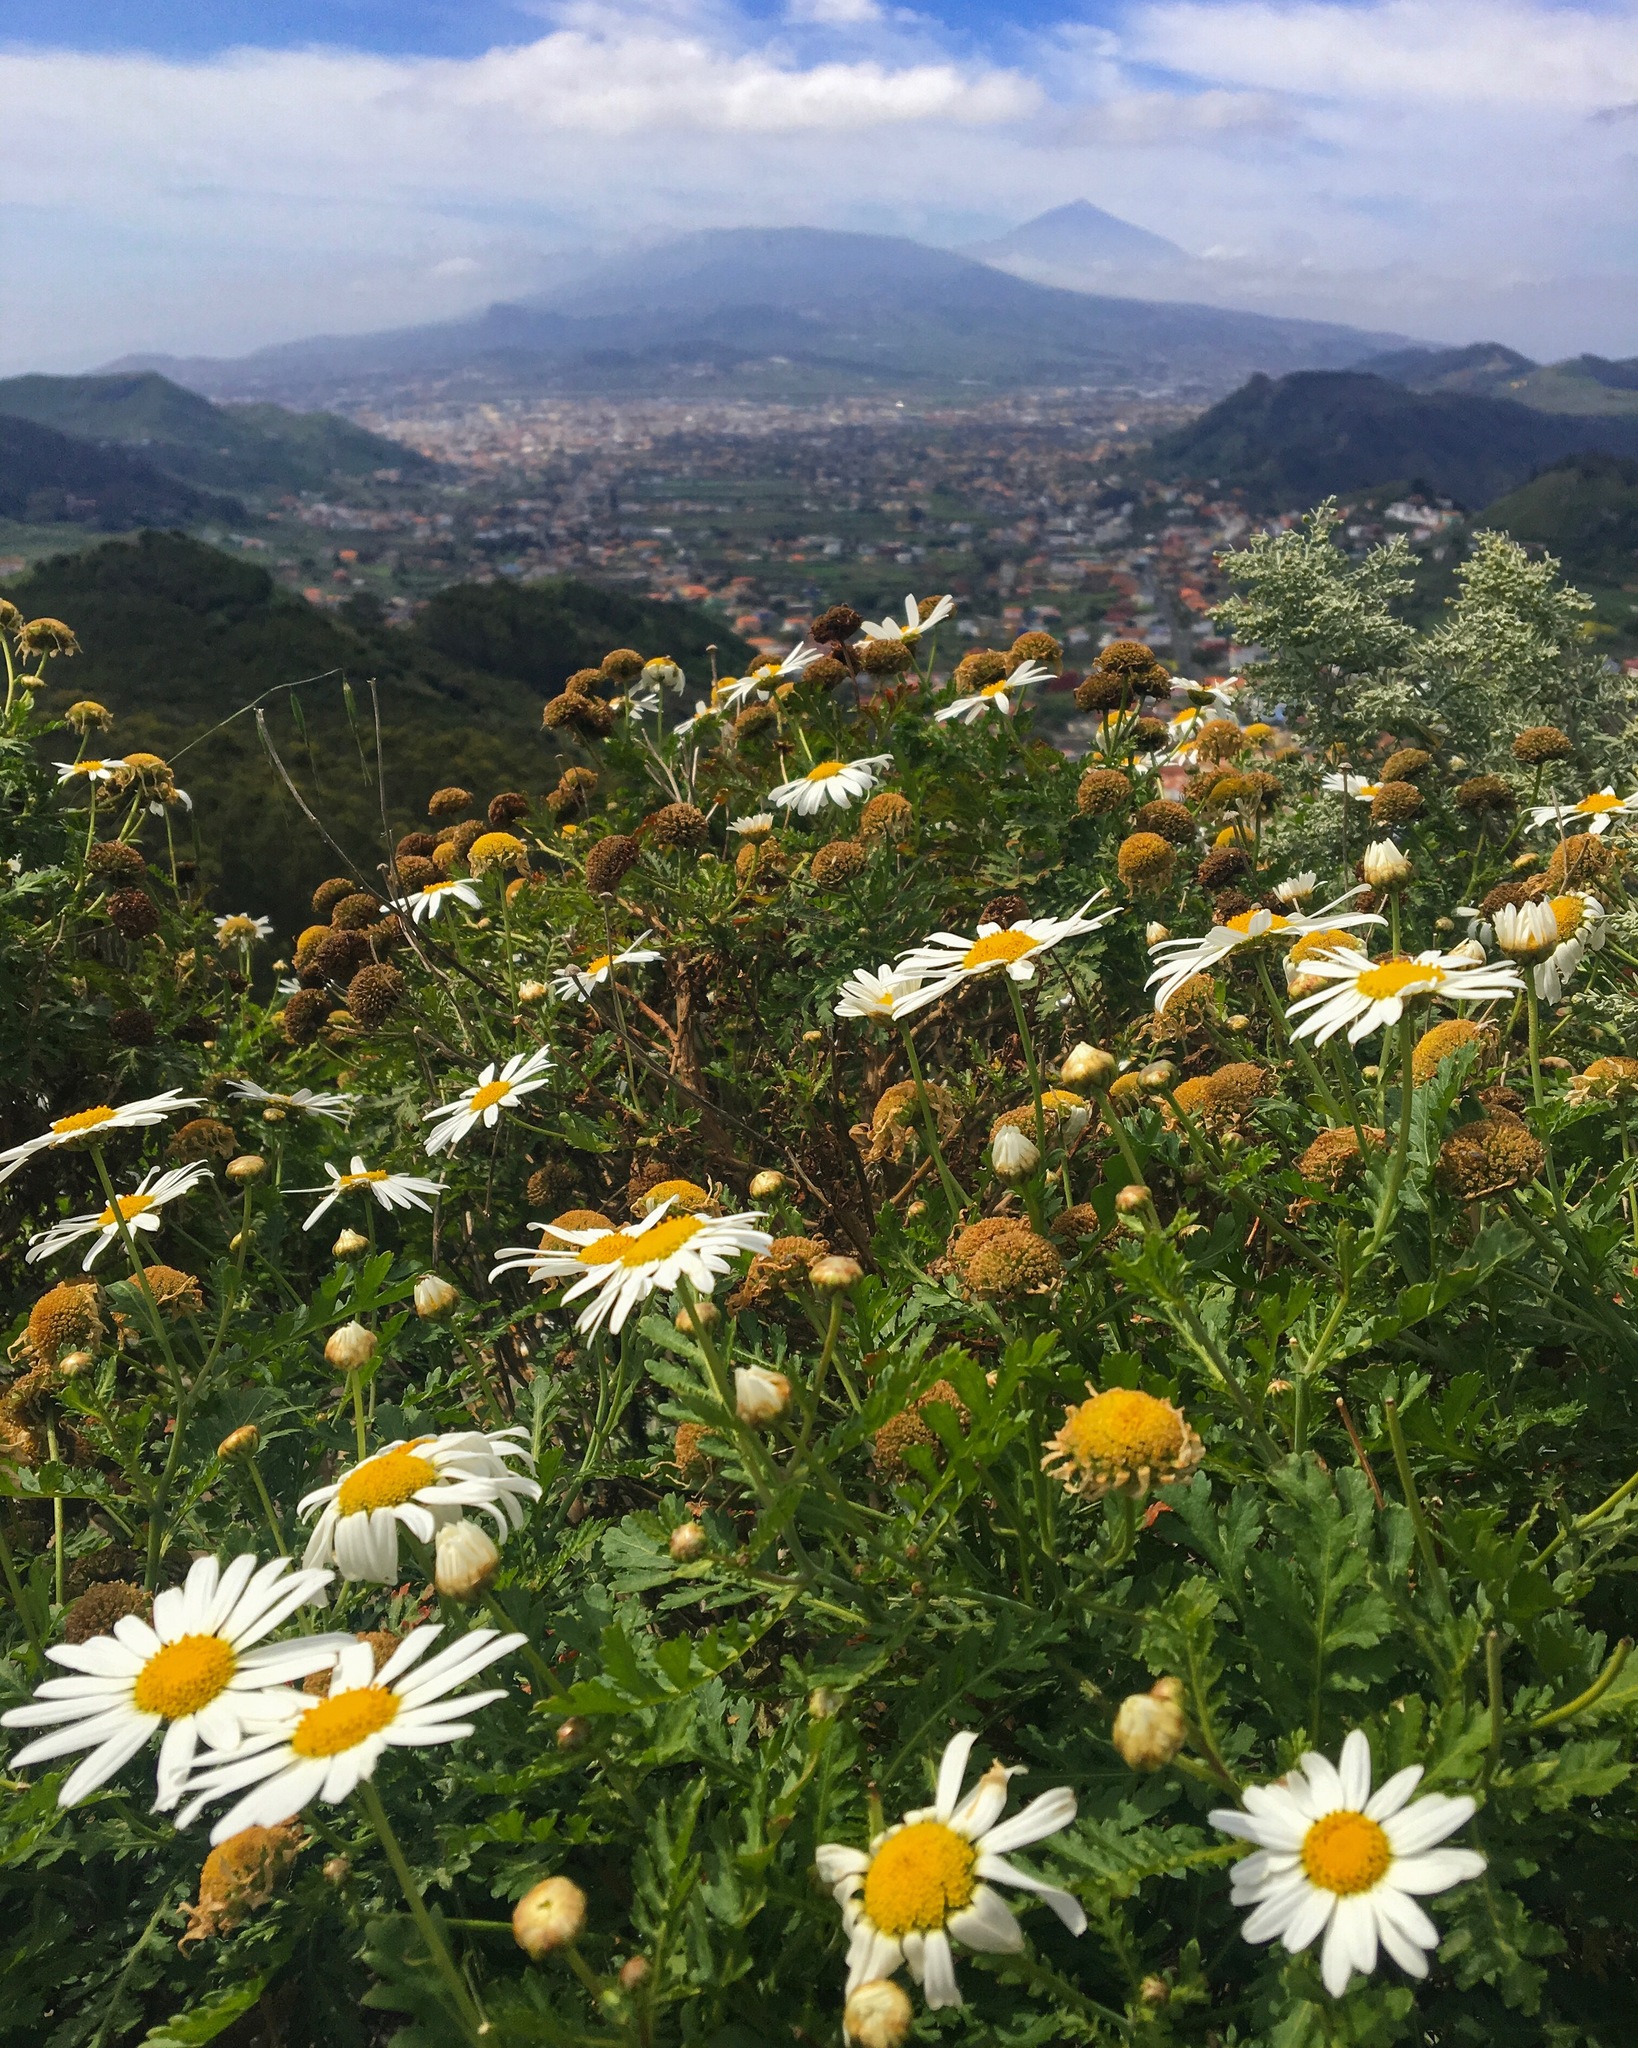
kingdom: Plantae
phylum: Tracheophyta
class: Magnoliopsida
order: Asterales
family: Asteraceae
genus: Argyranthemum
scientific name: Argyranthemum broussonetii
